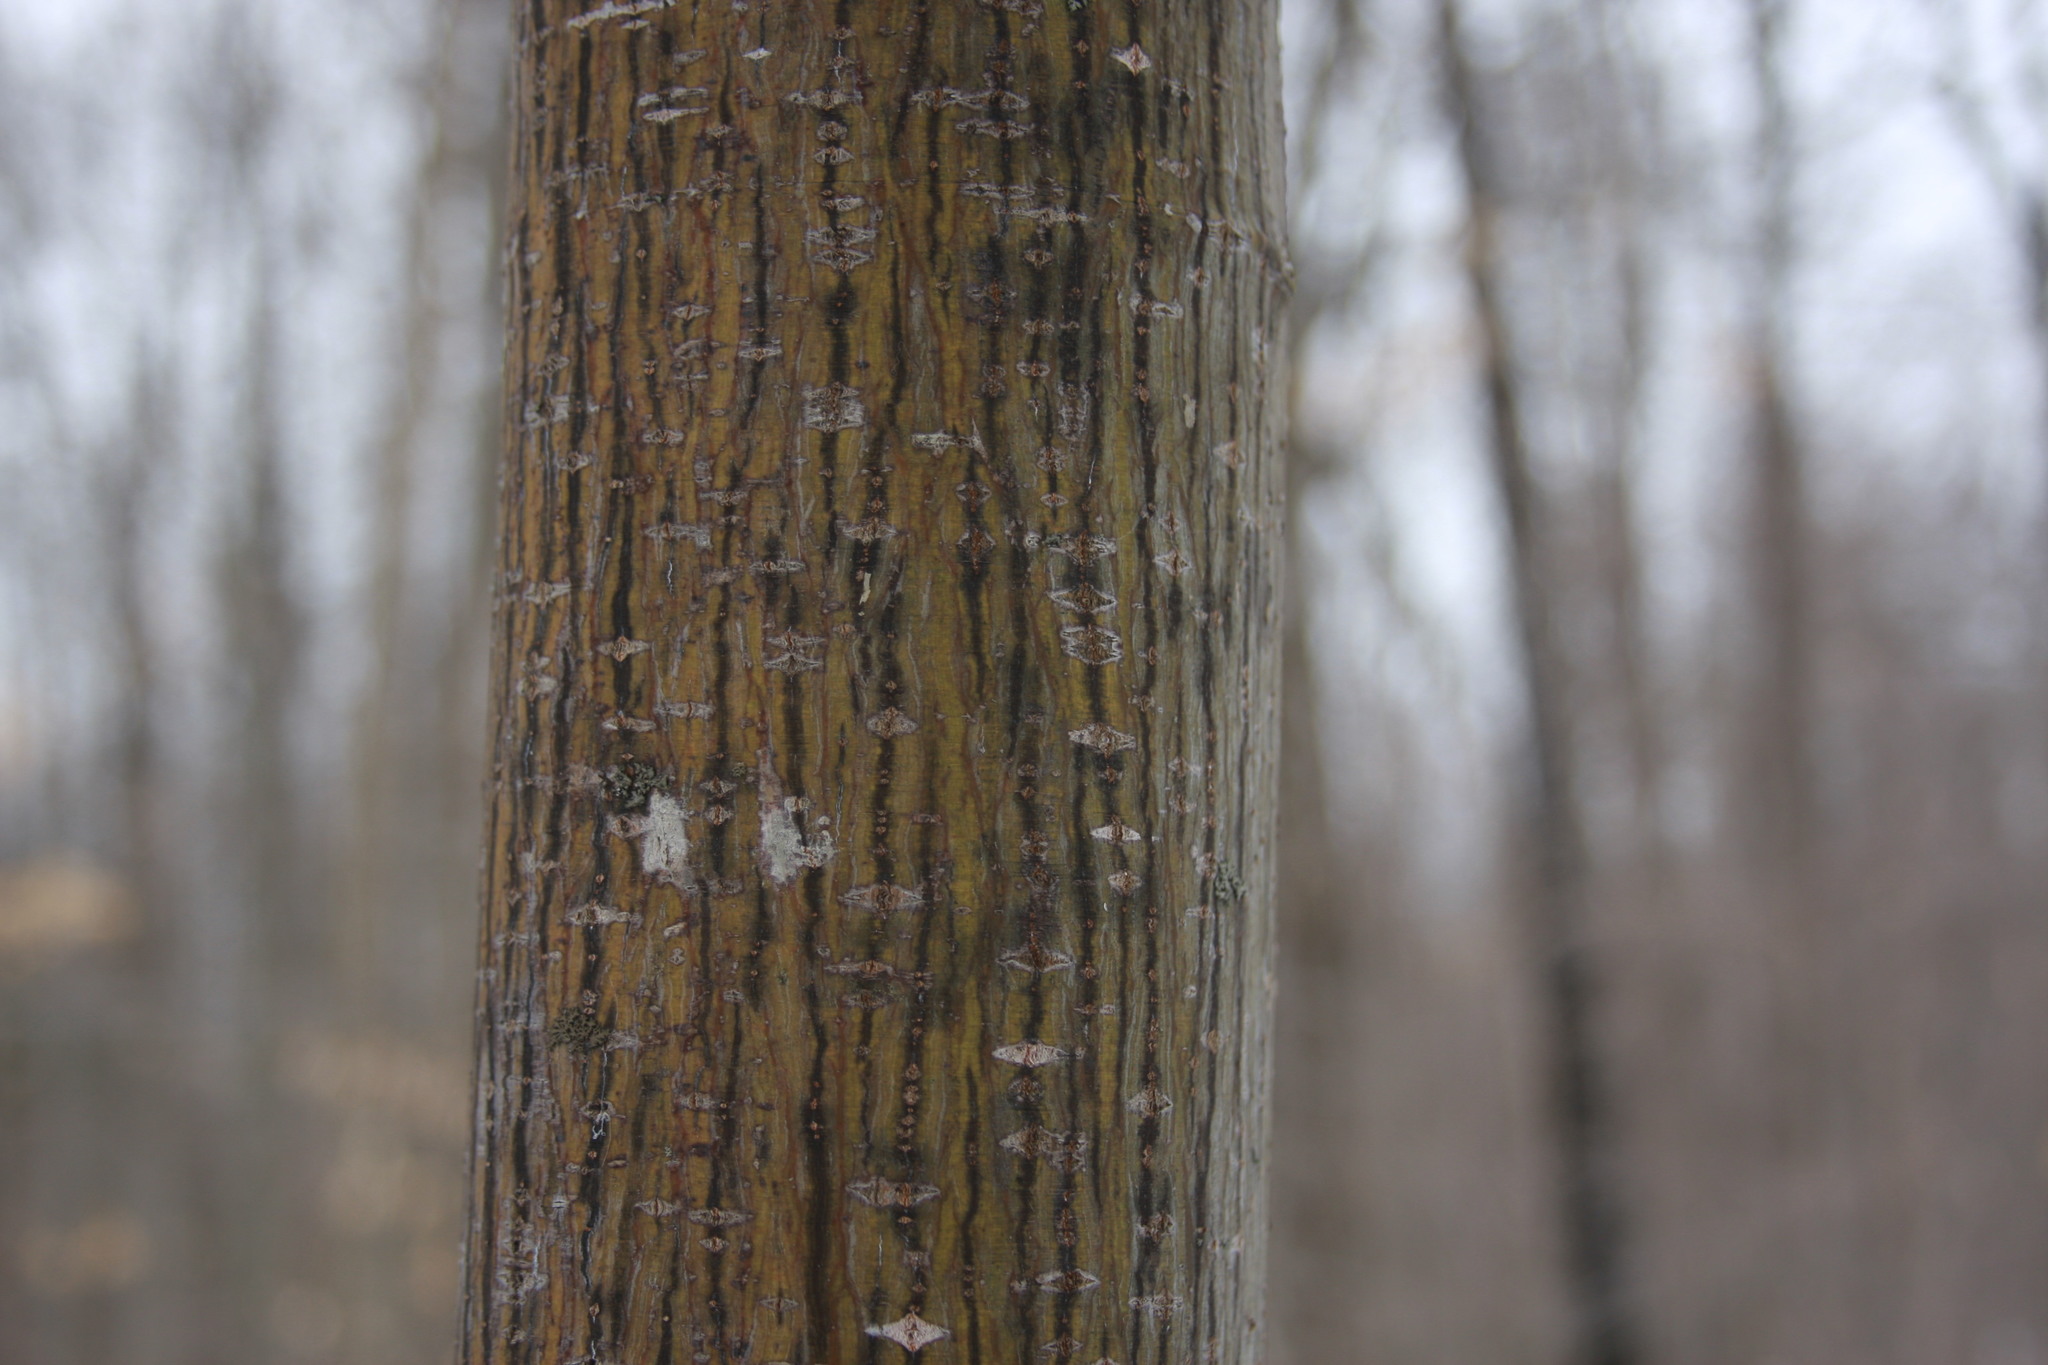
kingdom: Plantae
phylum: Tracheophyta
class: Magnoliopsida
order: Sapindales
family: Sapindaceae
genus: Acer
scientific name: Acer pensylvanicum
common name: Moosewood
